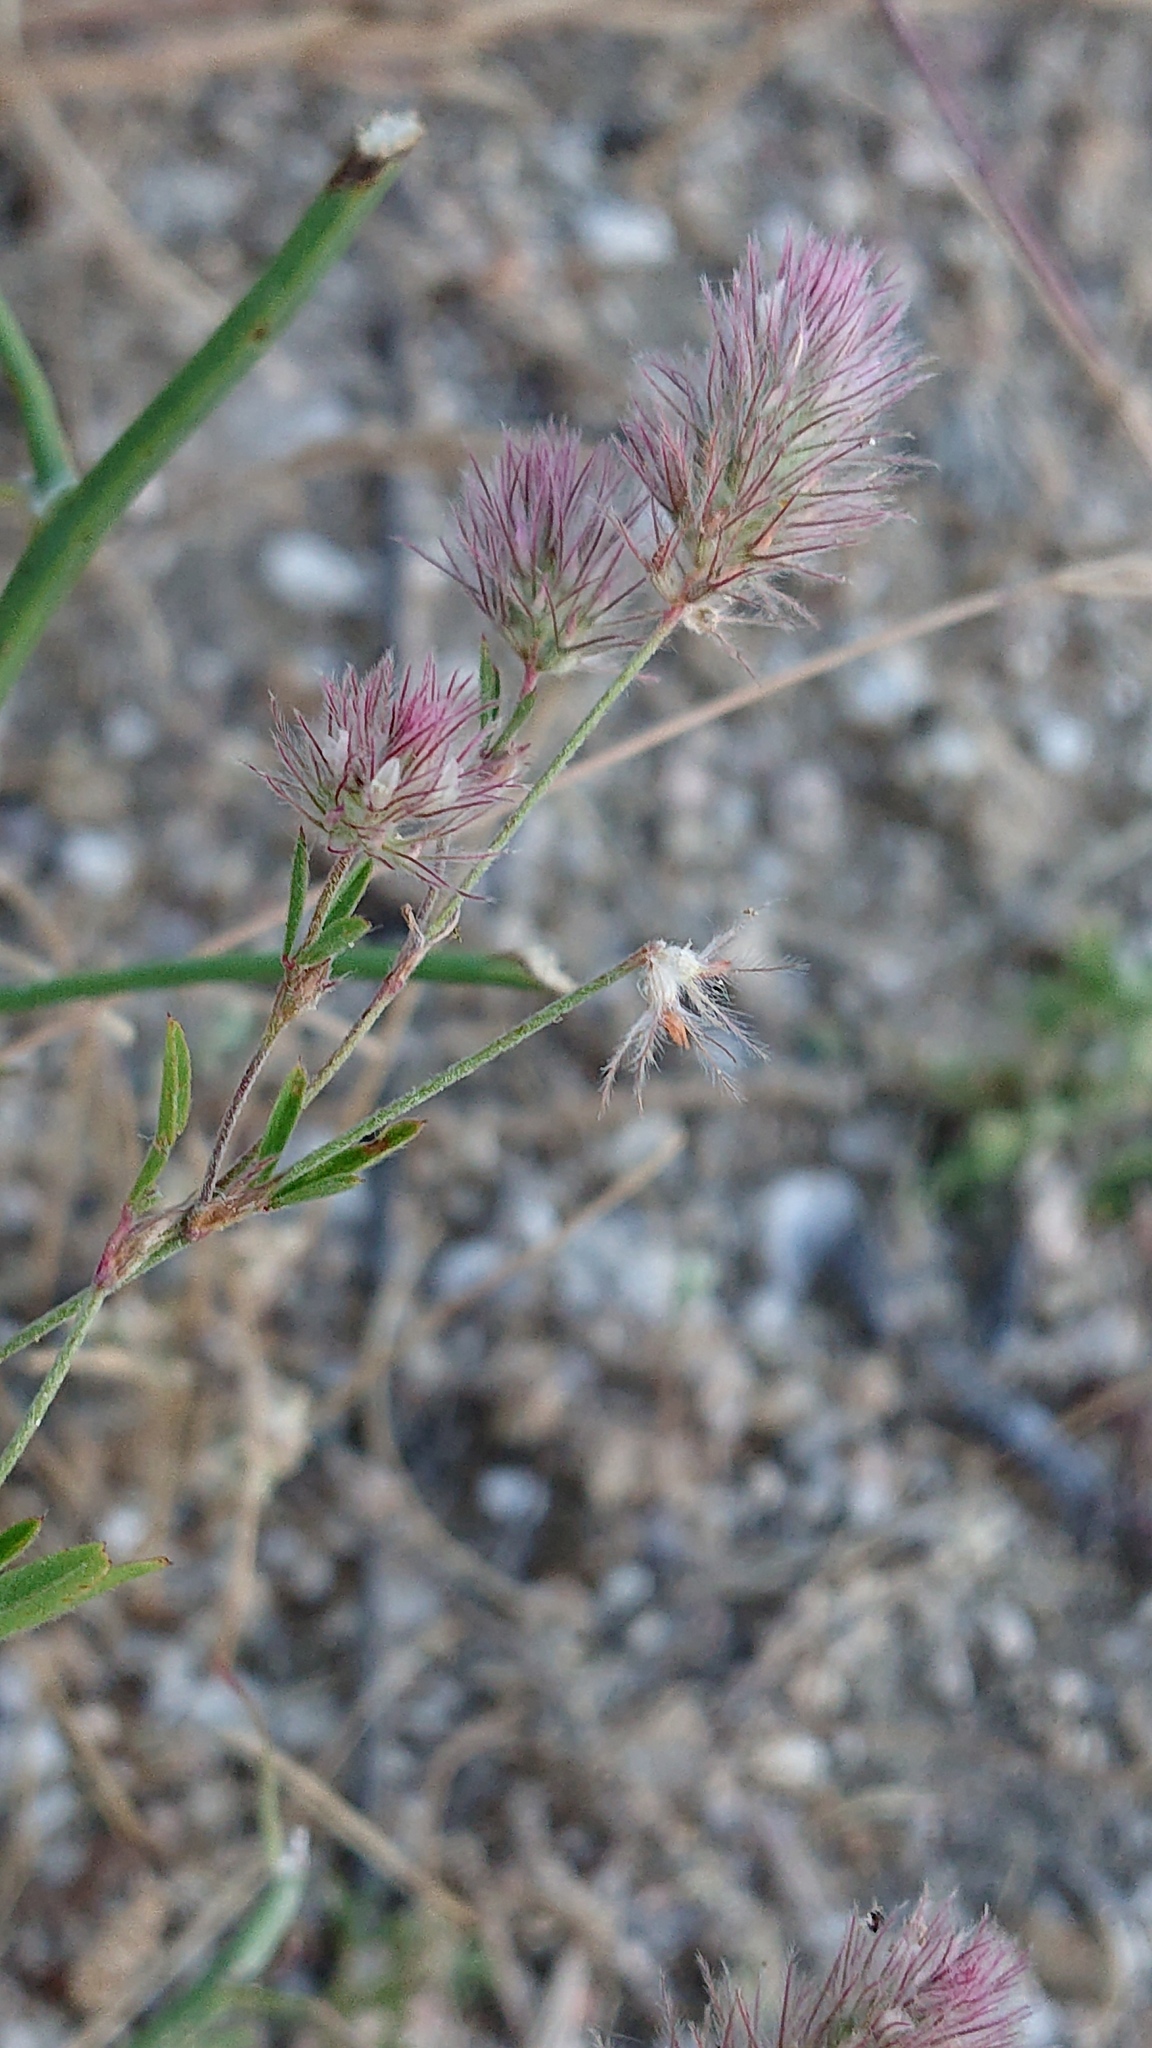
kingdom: Plantae
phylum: Tracheophyta
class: Magnoliopsida
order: Fabales
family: Fabaceae
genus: Trifolium
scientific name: Trifolium arvense
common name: Hare's-foot clover
